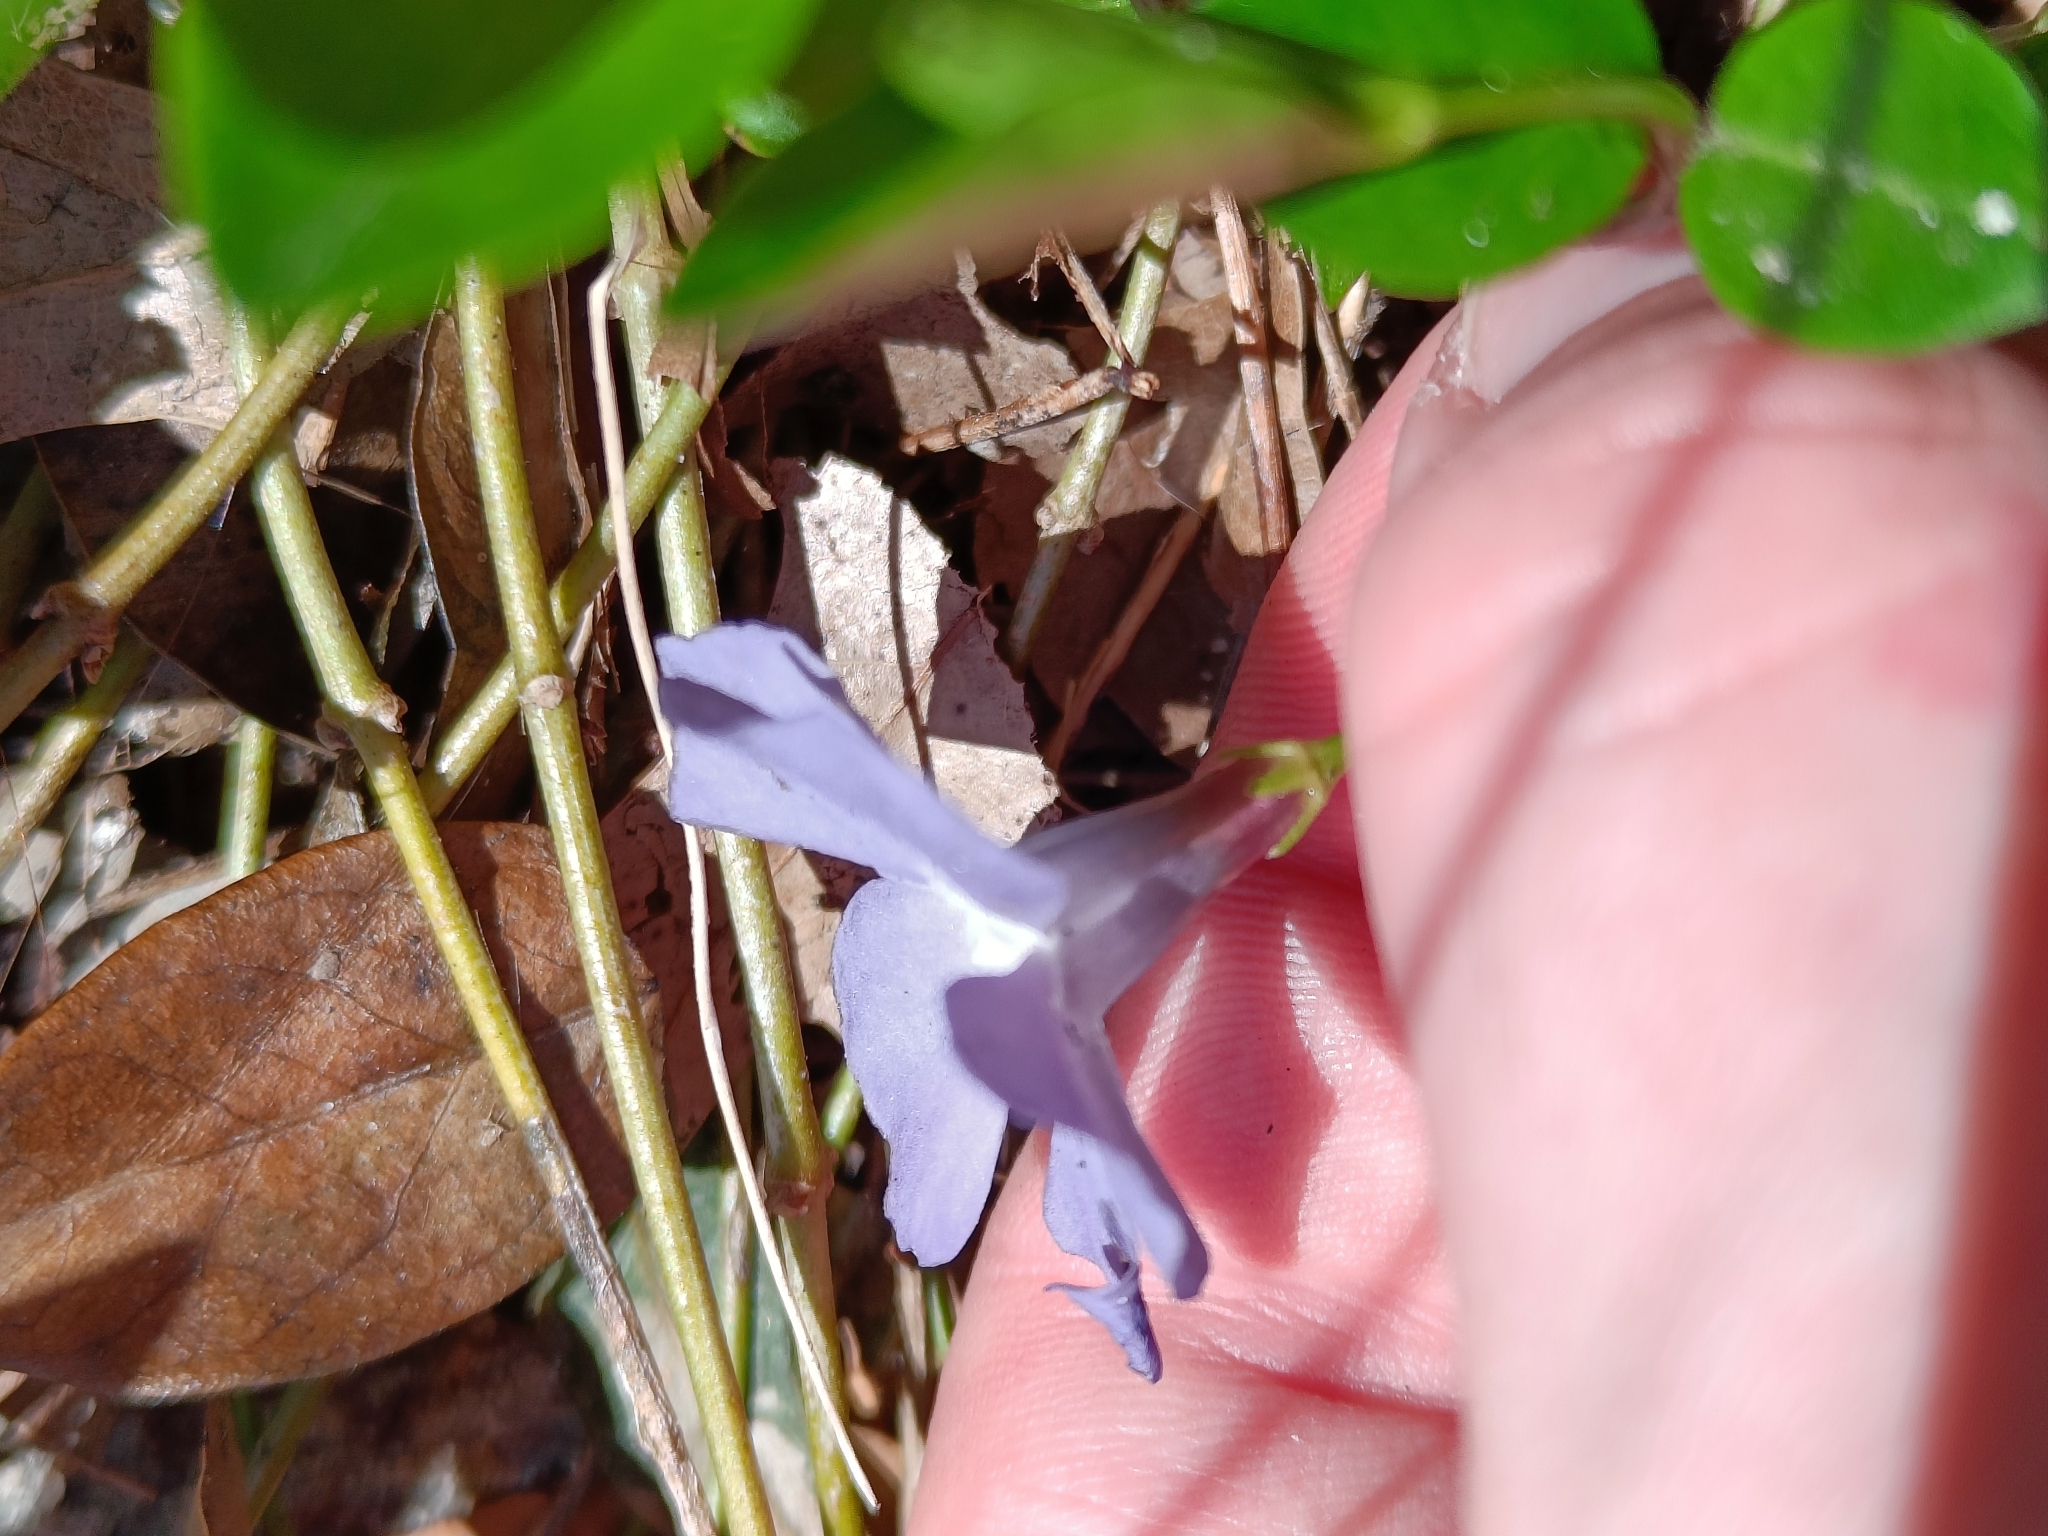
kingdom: Plantae
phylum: Tracheophyta
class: Magnoliopsida
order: Gentianales
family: Apocynaceae
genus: Vinca
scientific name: Vinca minor
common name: Lesser periwinkle
